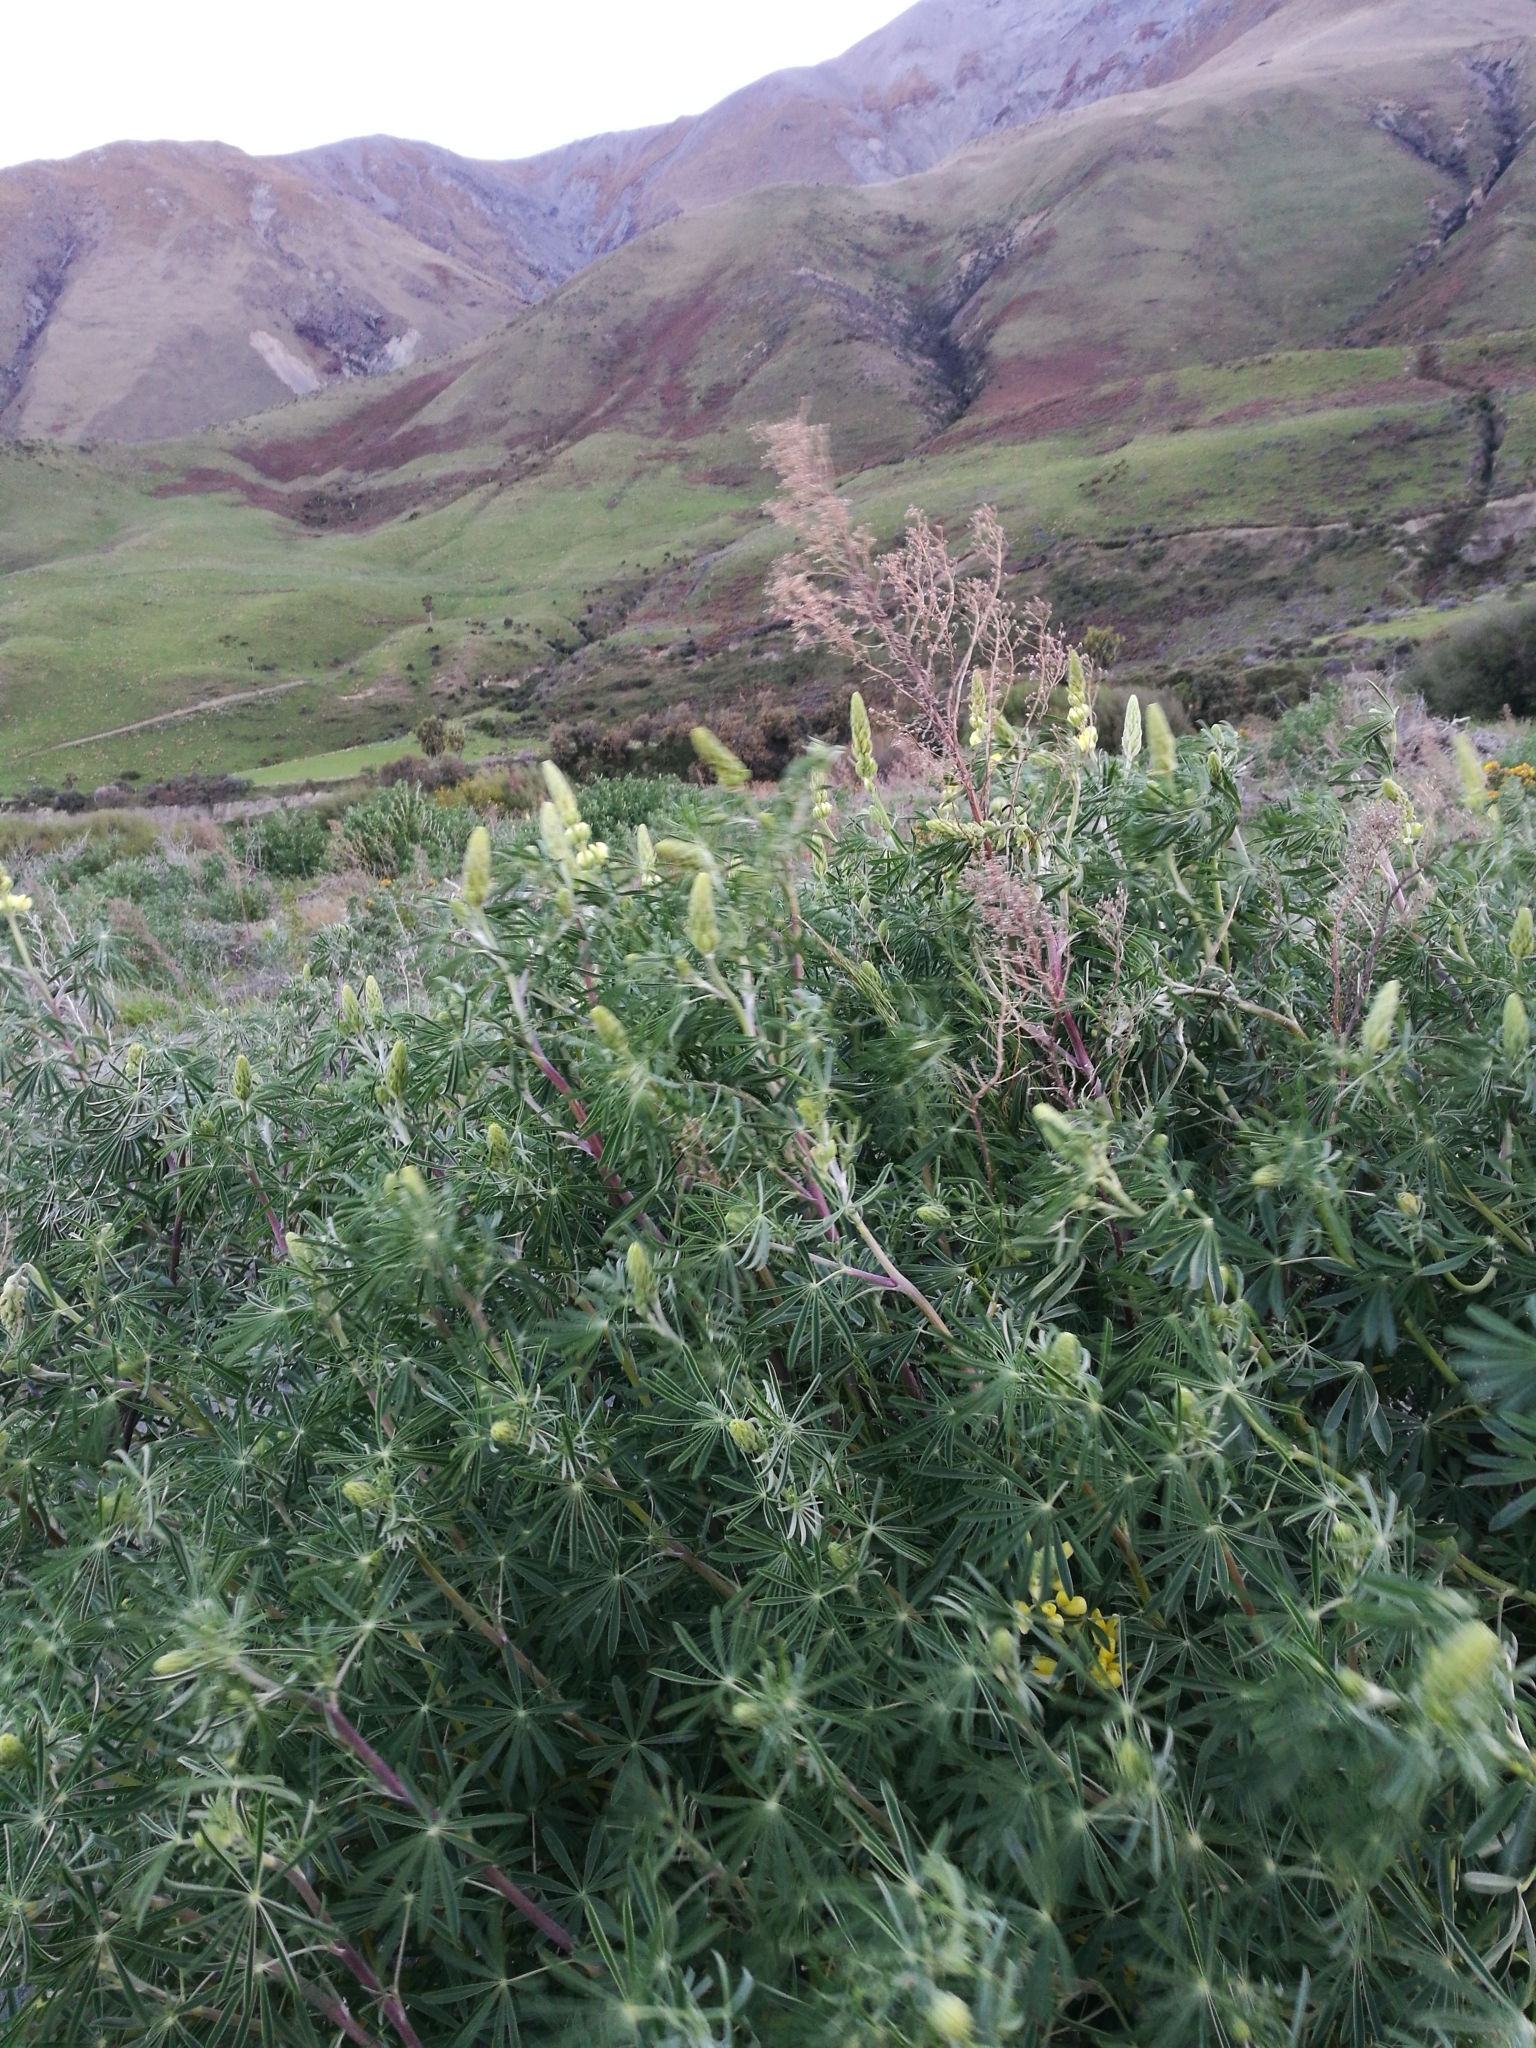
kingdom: Plantae
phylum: Tracheophyta
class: Magnoliopsida
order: Fabales
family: Fabaceae
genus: Lupinus
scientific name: Lupinus arboreus
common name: Yellow bush lupine
